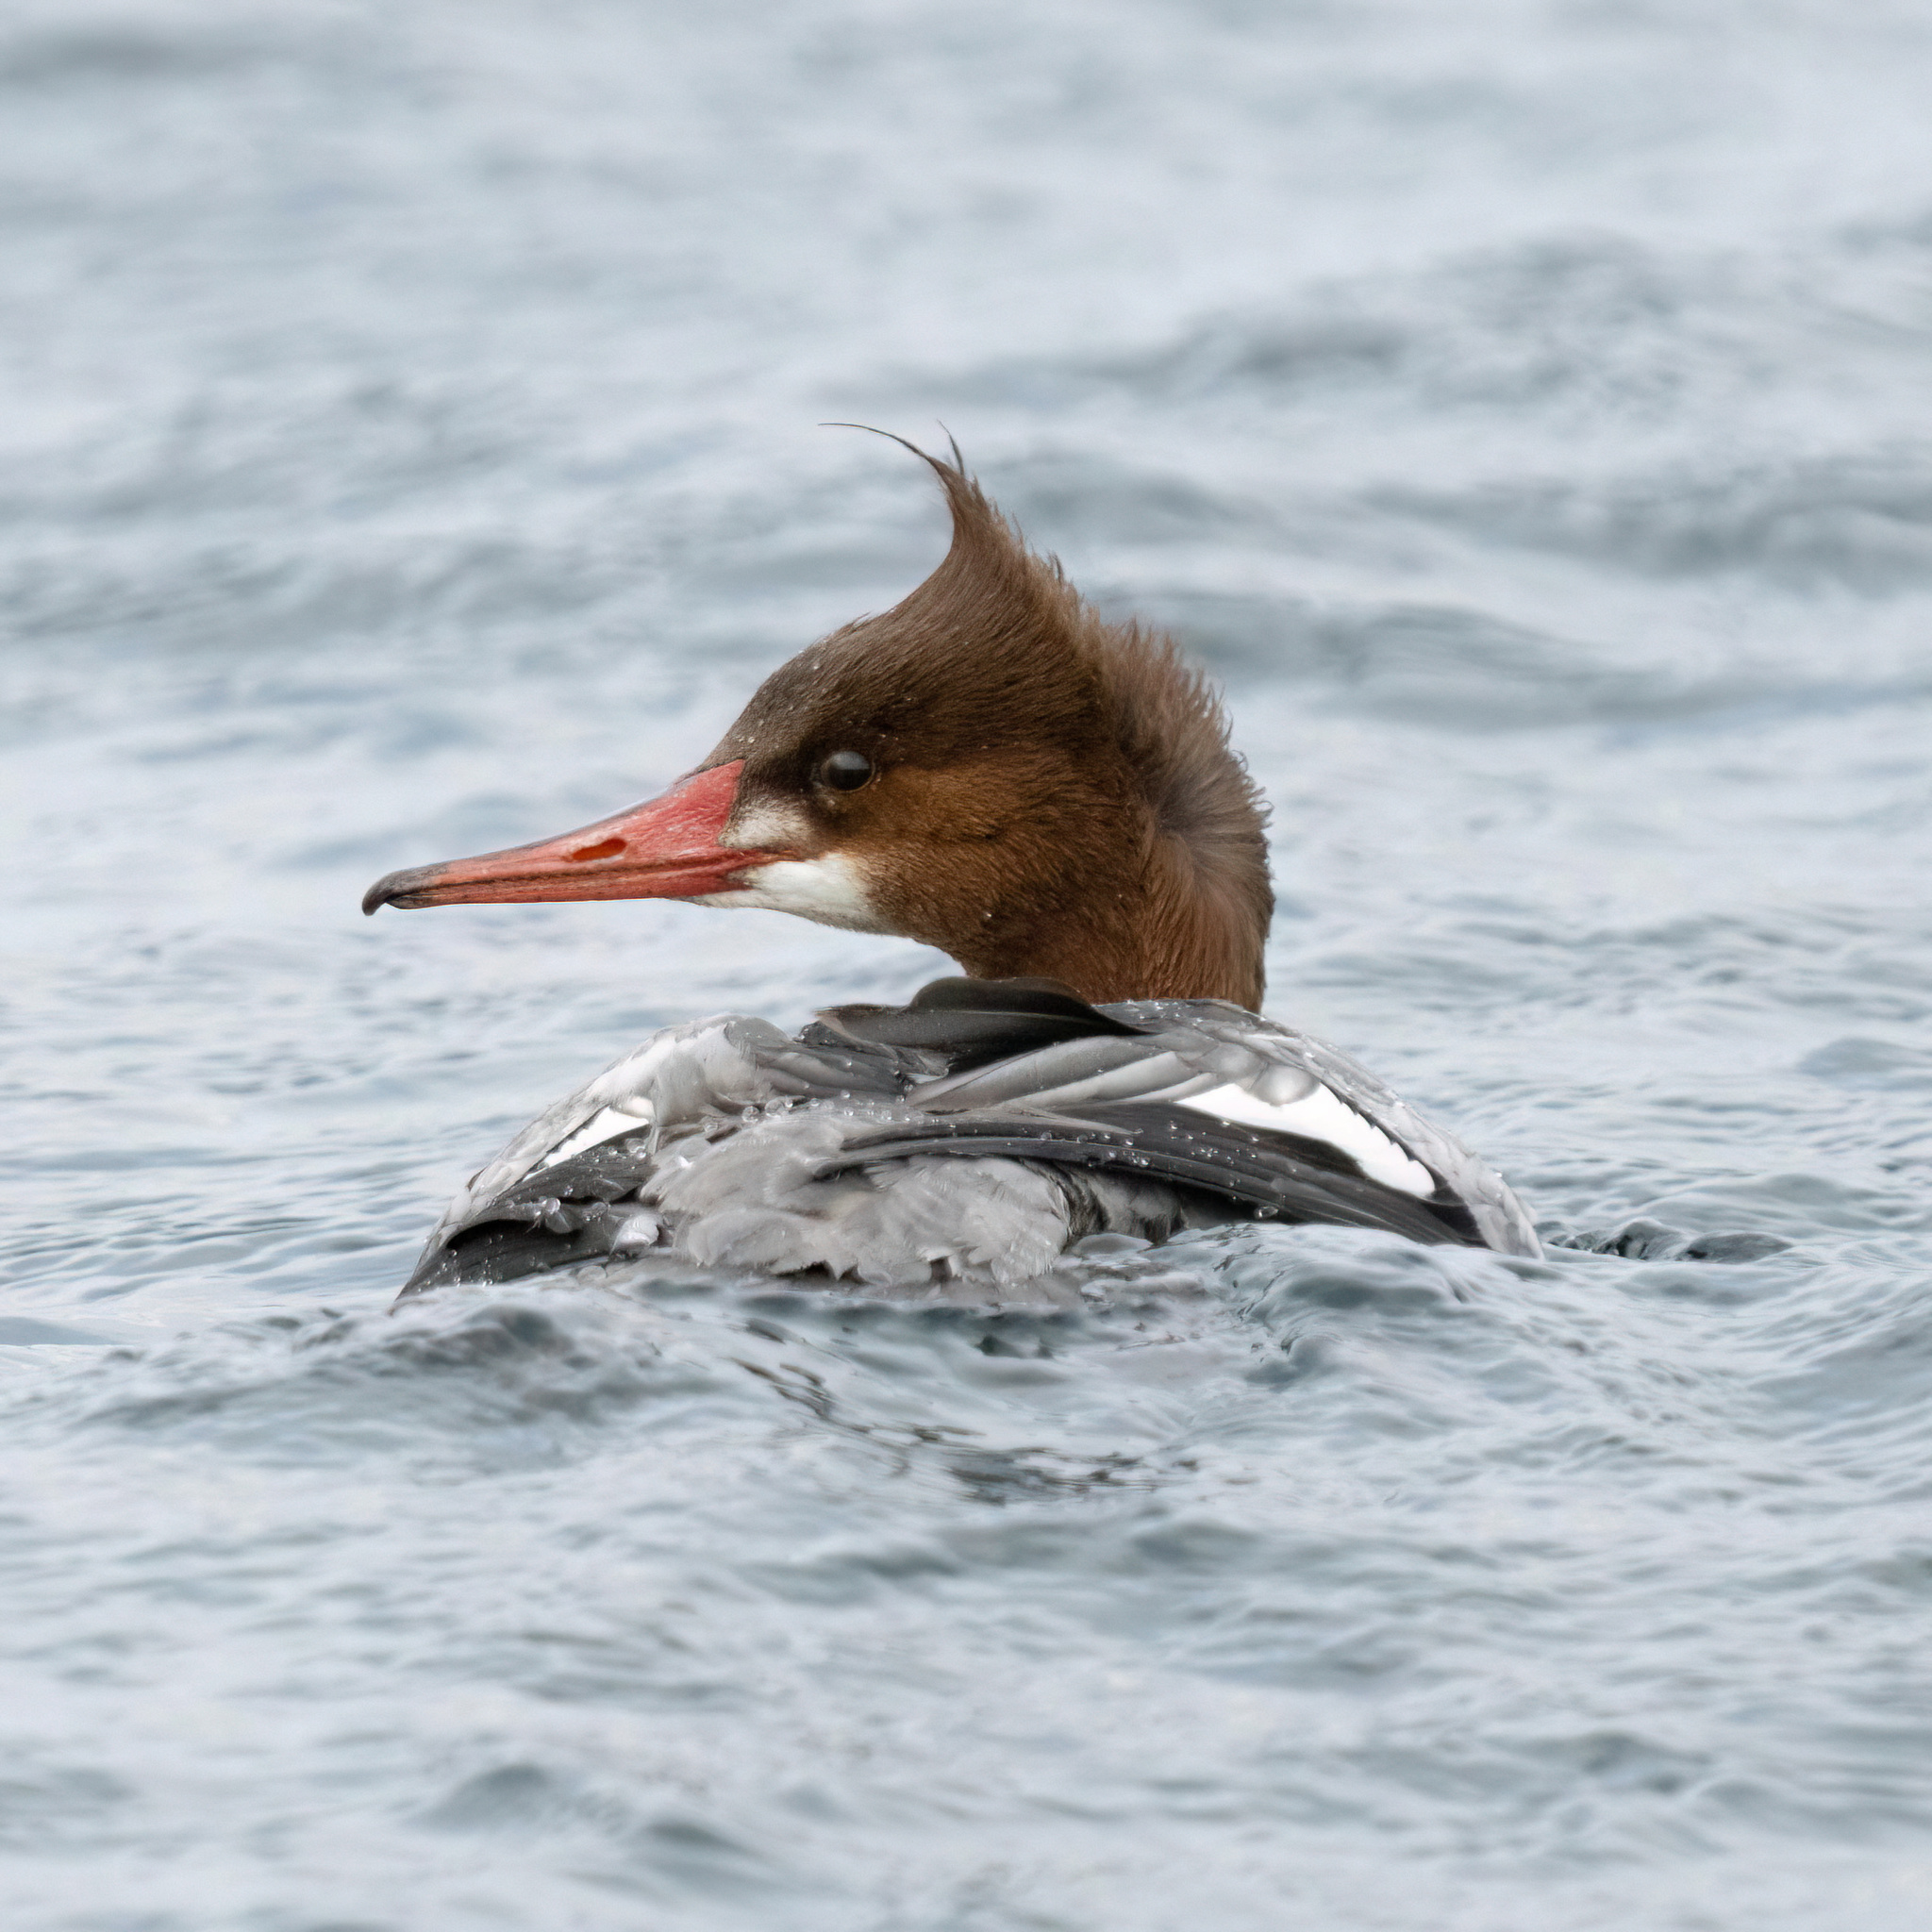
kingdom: Animalia
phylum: Chordata
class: Aves
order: Anseriformes
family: Anatidae
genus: Mergus
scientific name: Mergus merganser
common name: Common merganser
